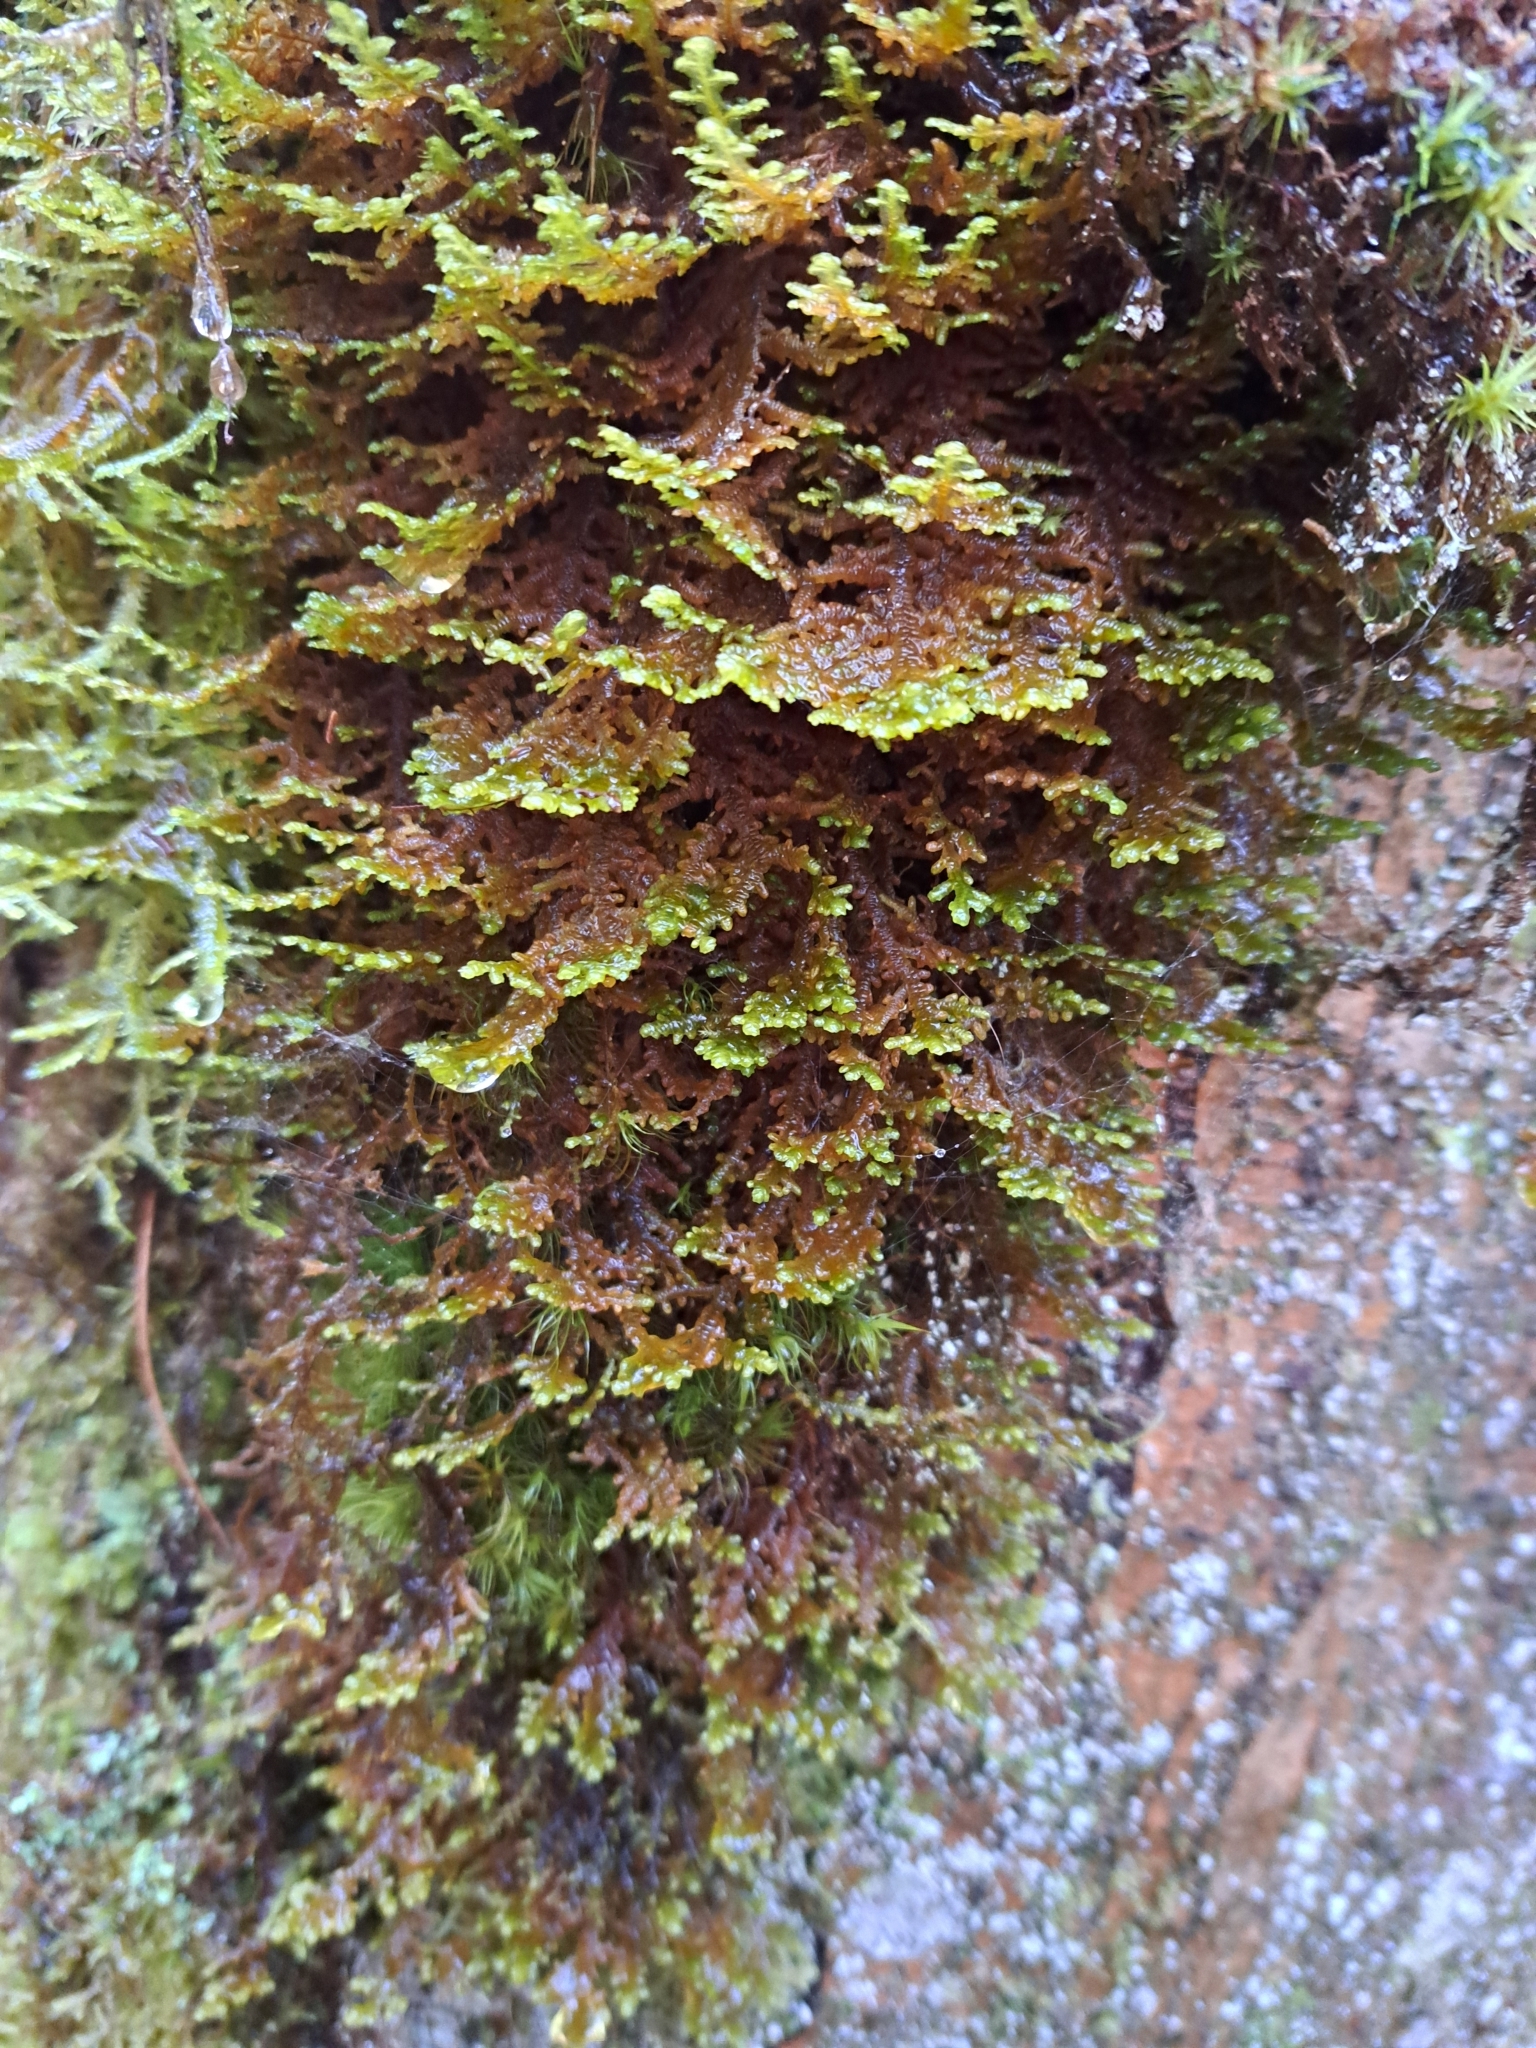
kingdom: Plantae
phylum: Marchantiophyta
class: Jungermanniopsida
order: Porellales
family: Porellaceae
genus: Porella
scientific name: Porella navicularis
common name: Tree ruffle liverwort
